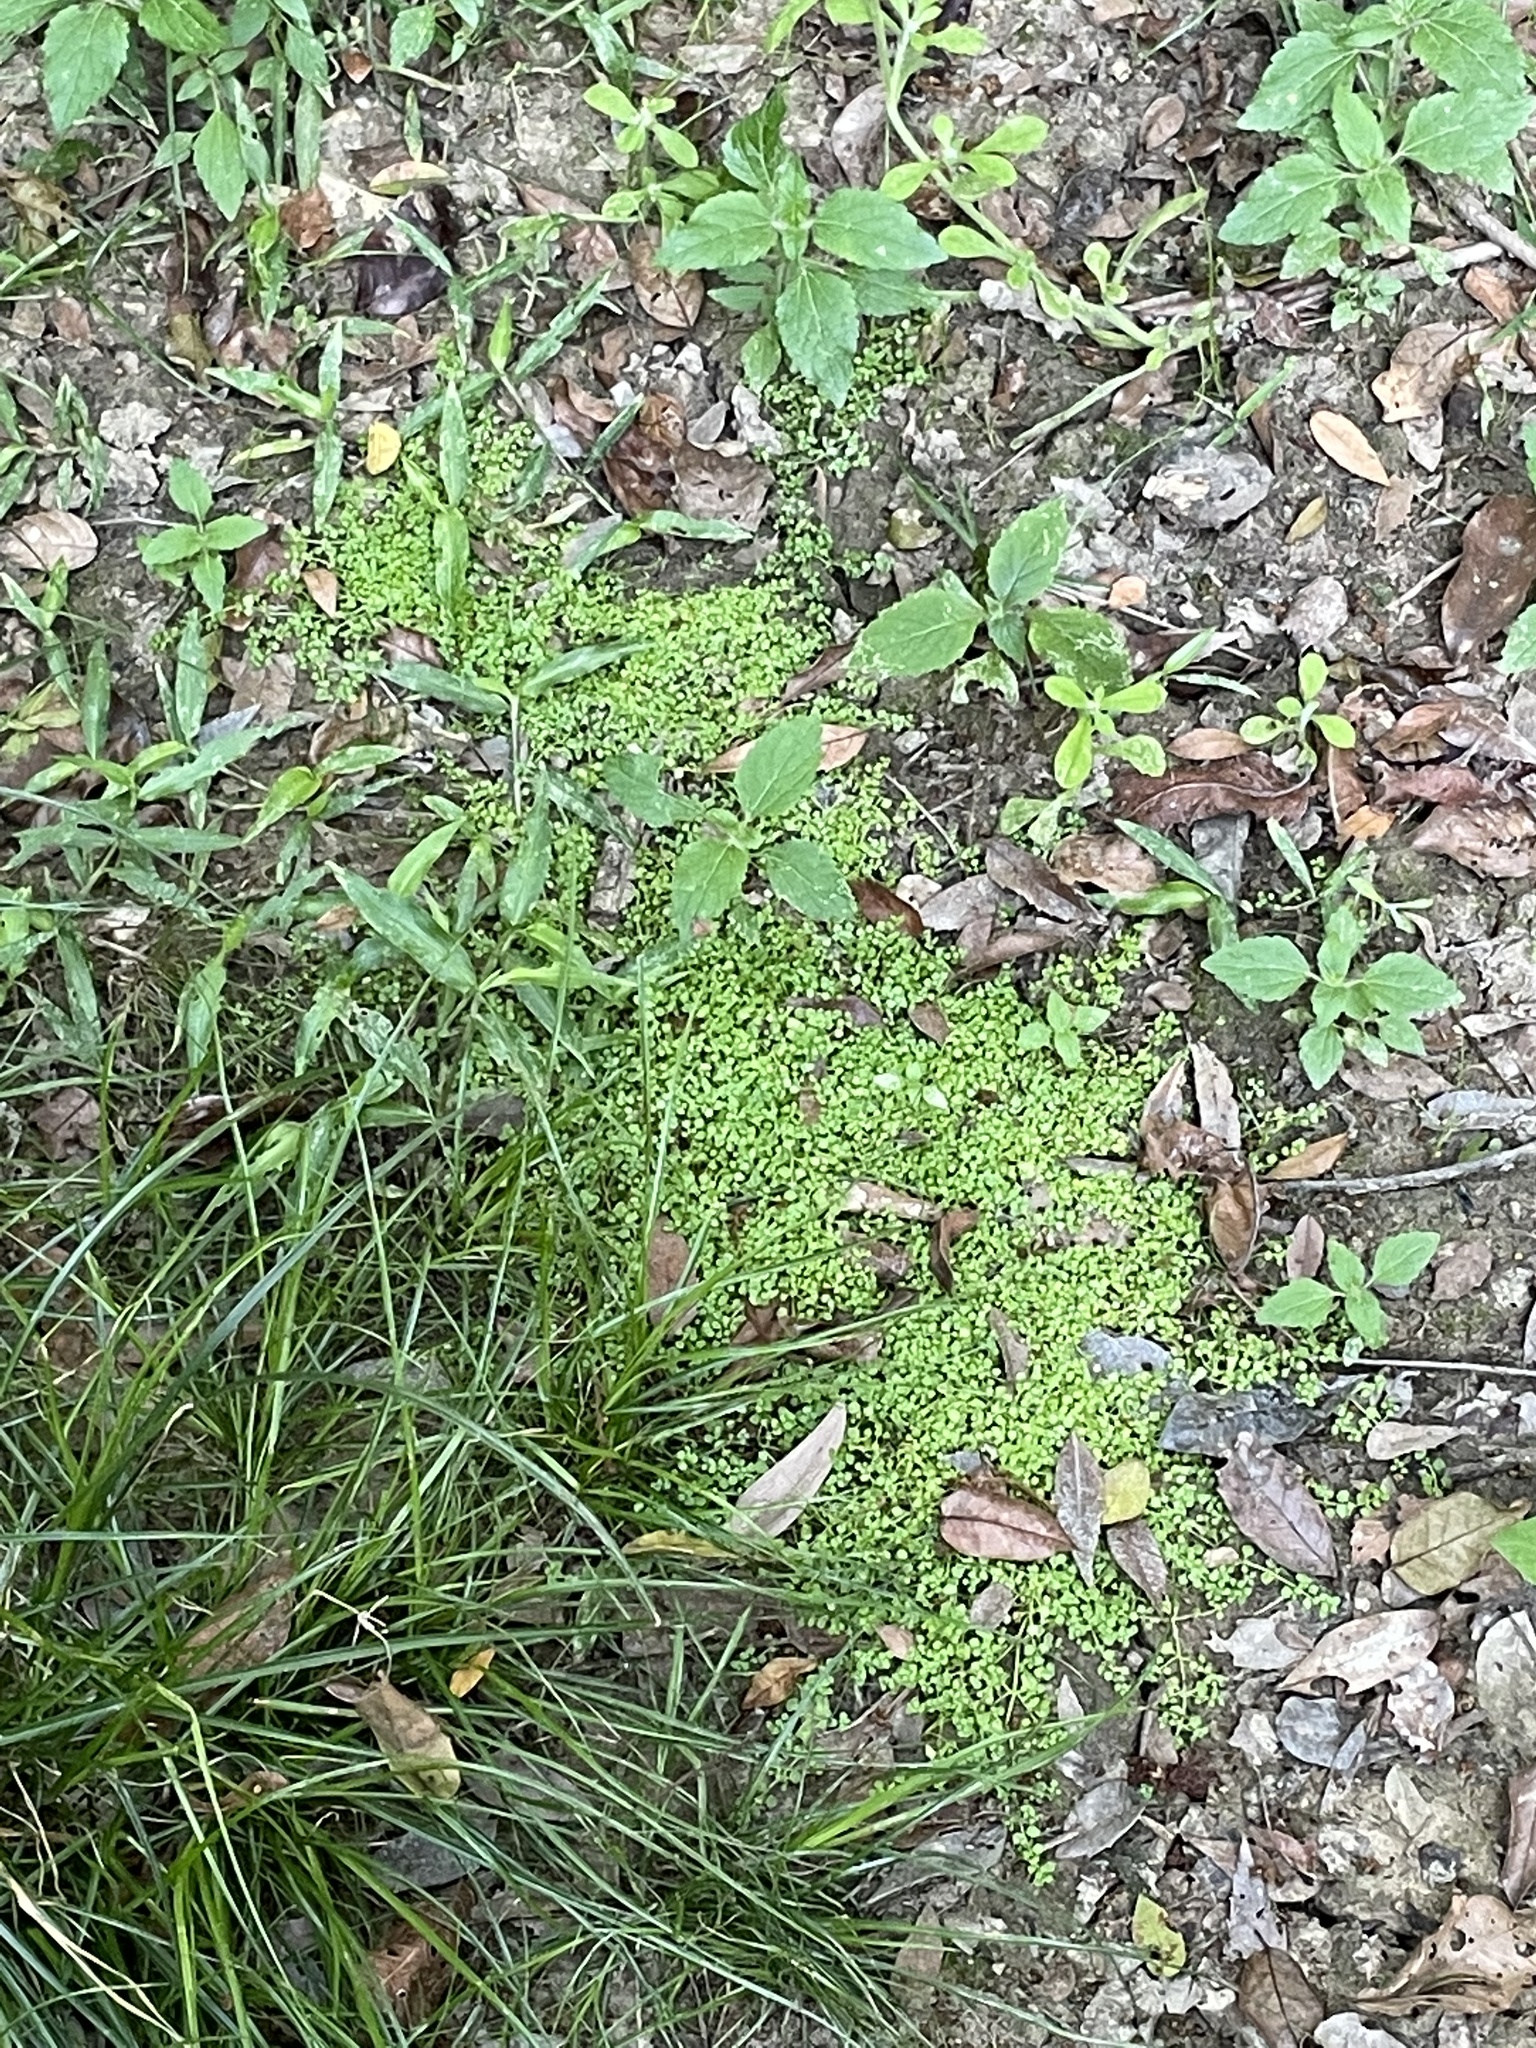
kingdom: Plantae
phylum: Tracheophyta
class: Magnoliopsida
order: Lamiales
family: Plantaginaceae
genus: Callitriche
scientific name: Callitriche muelleri
